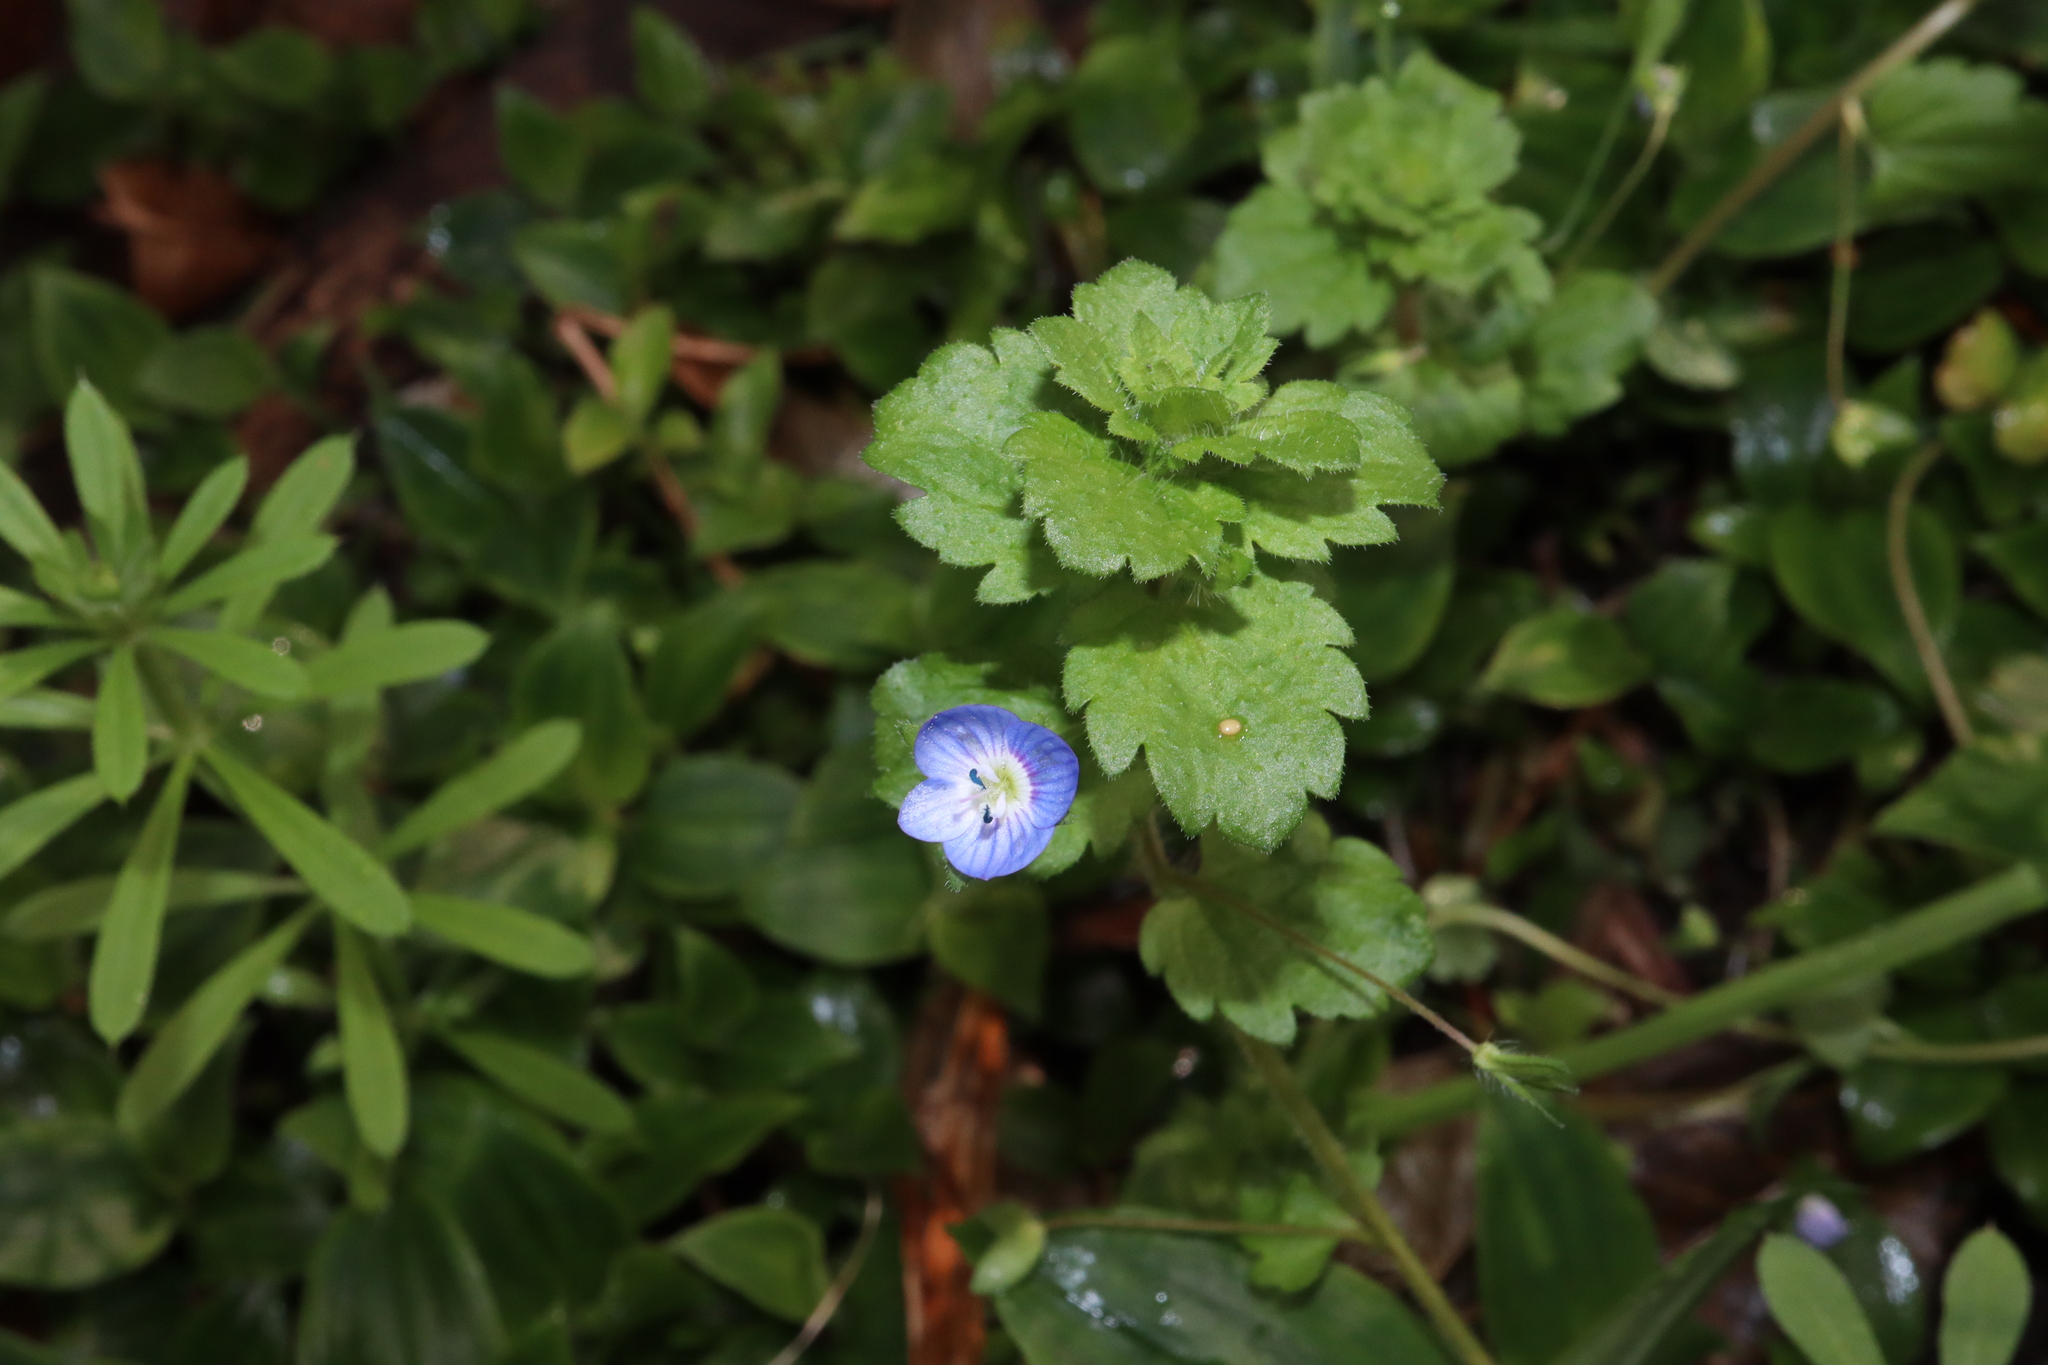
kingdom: Plantae
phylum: Tracheophyta
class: Magnoliopsida
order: Lamiales
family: Plantaginaceae
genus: Veronica
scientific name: Veronica persica
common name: Common field-speedwell
